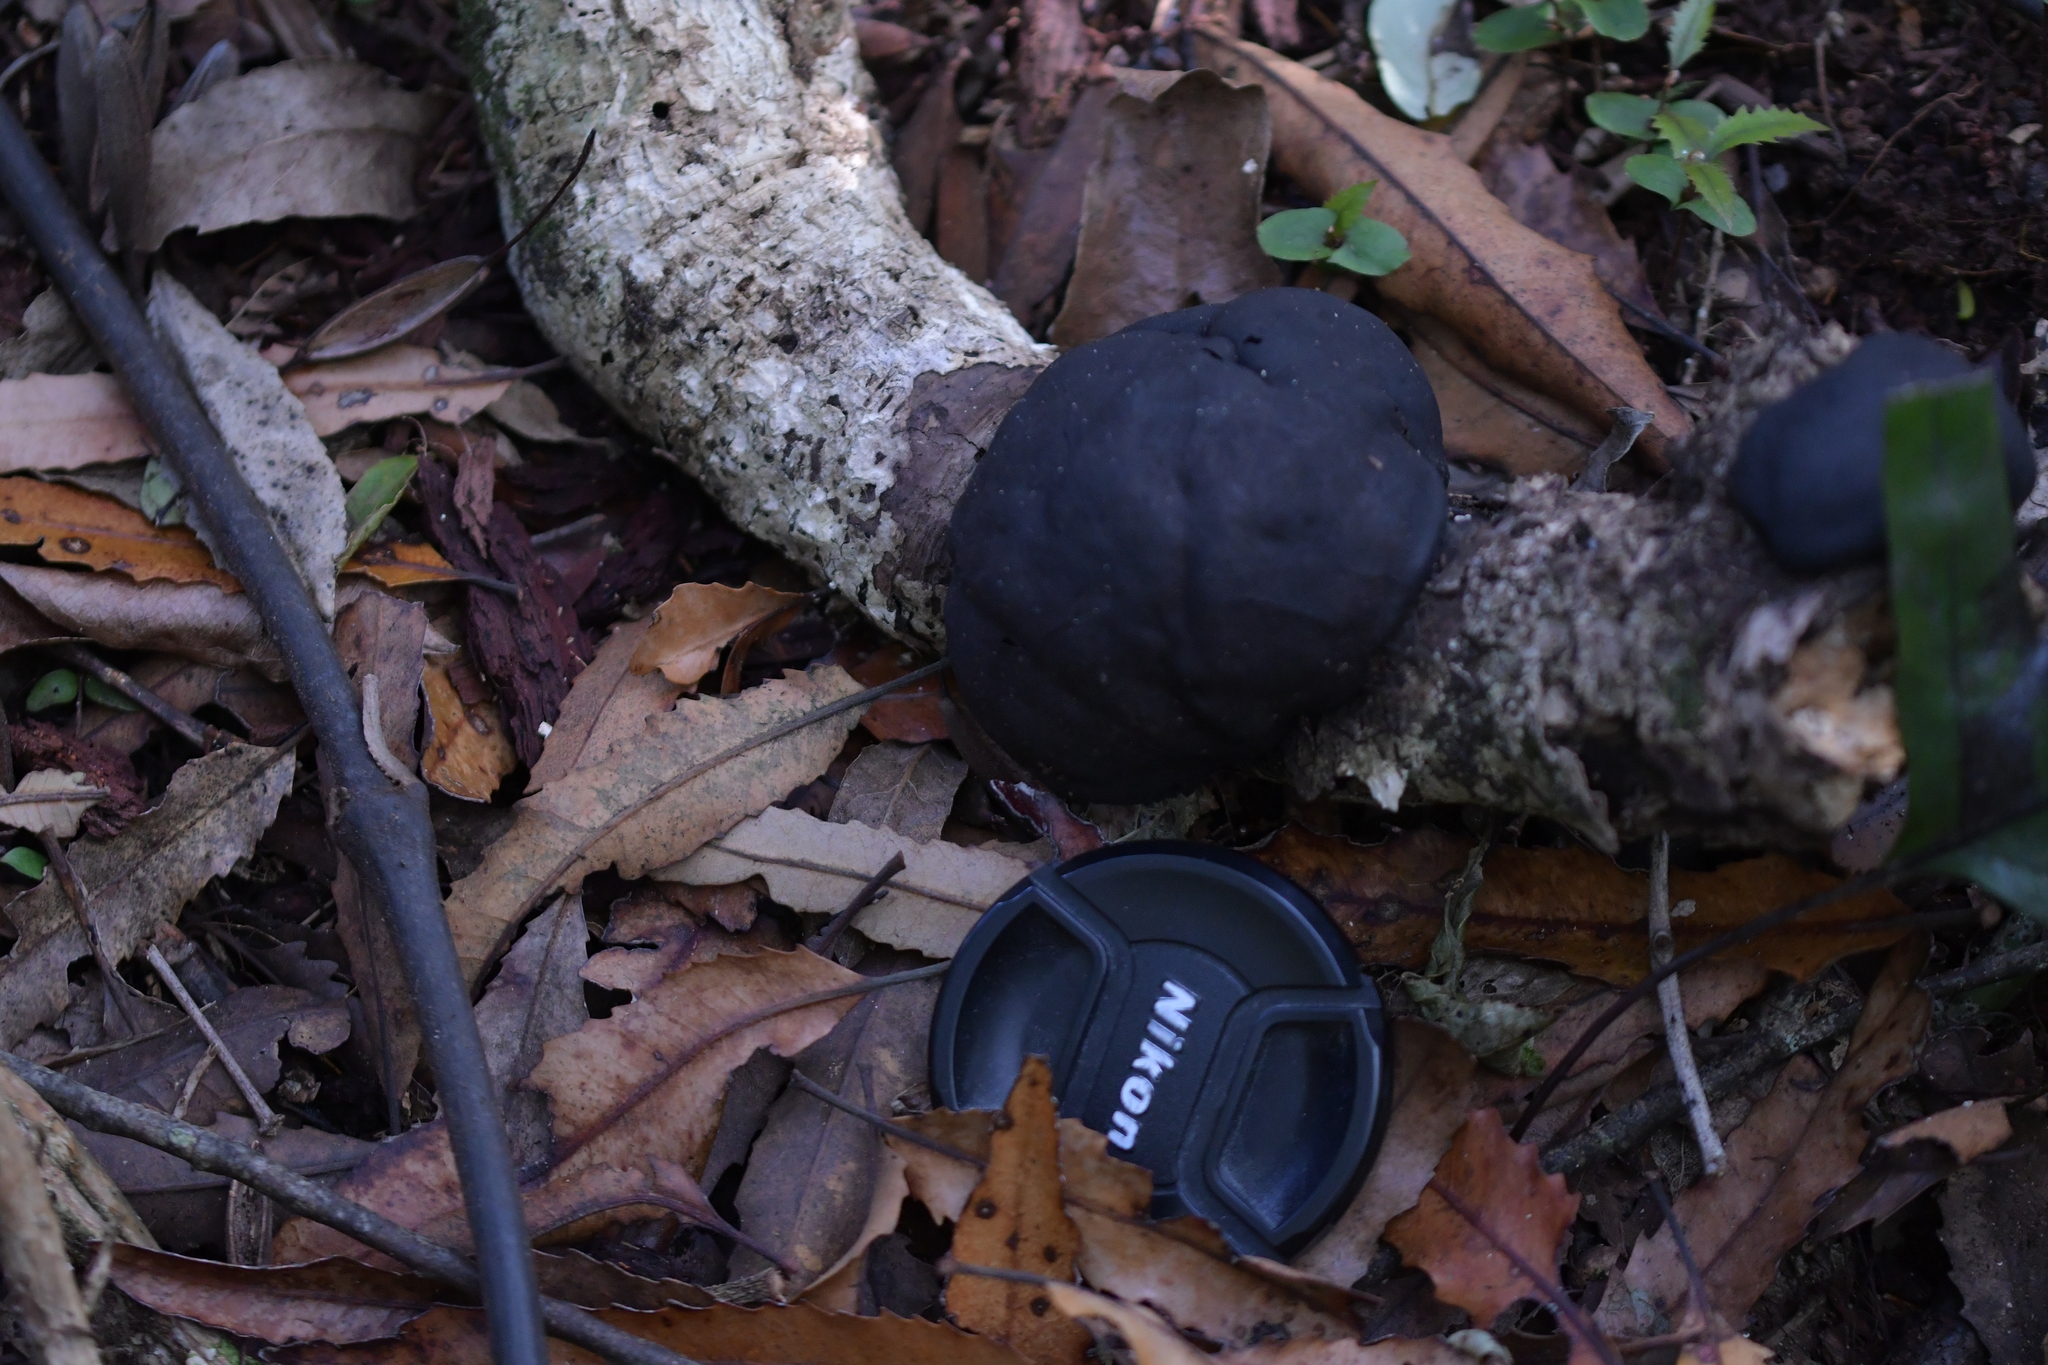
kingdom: Fungi
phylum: Ascomycota
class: Sordariomycetes
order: Xylariales
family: Hypoxylaceae
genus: Daldinia
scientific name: Daldinia
